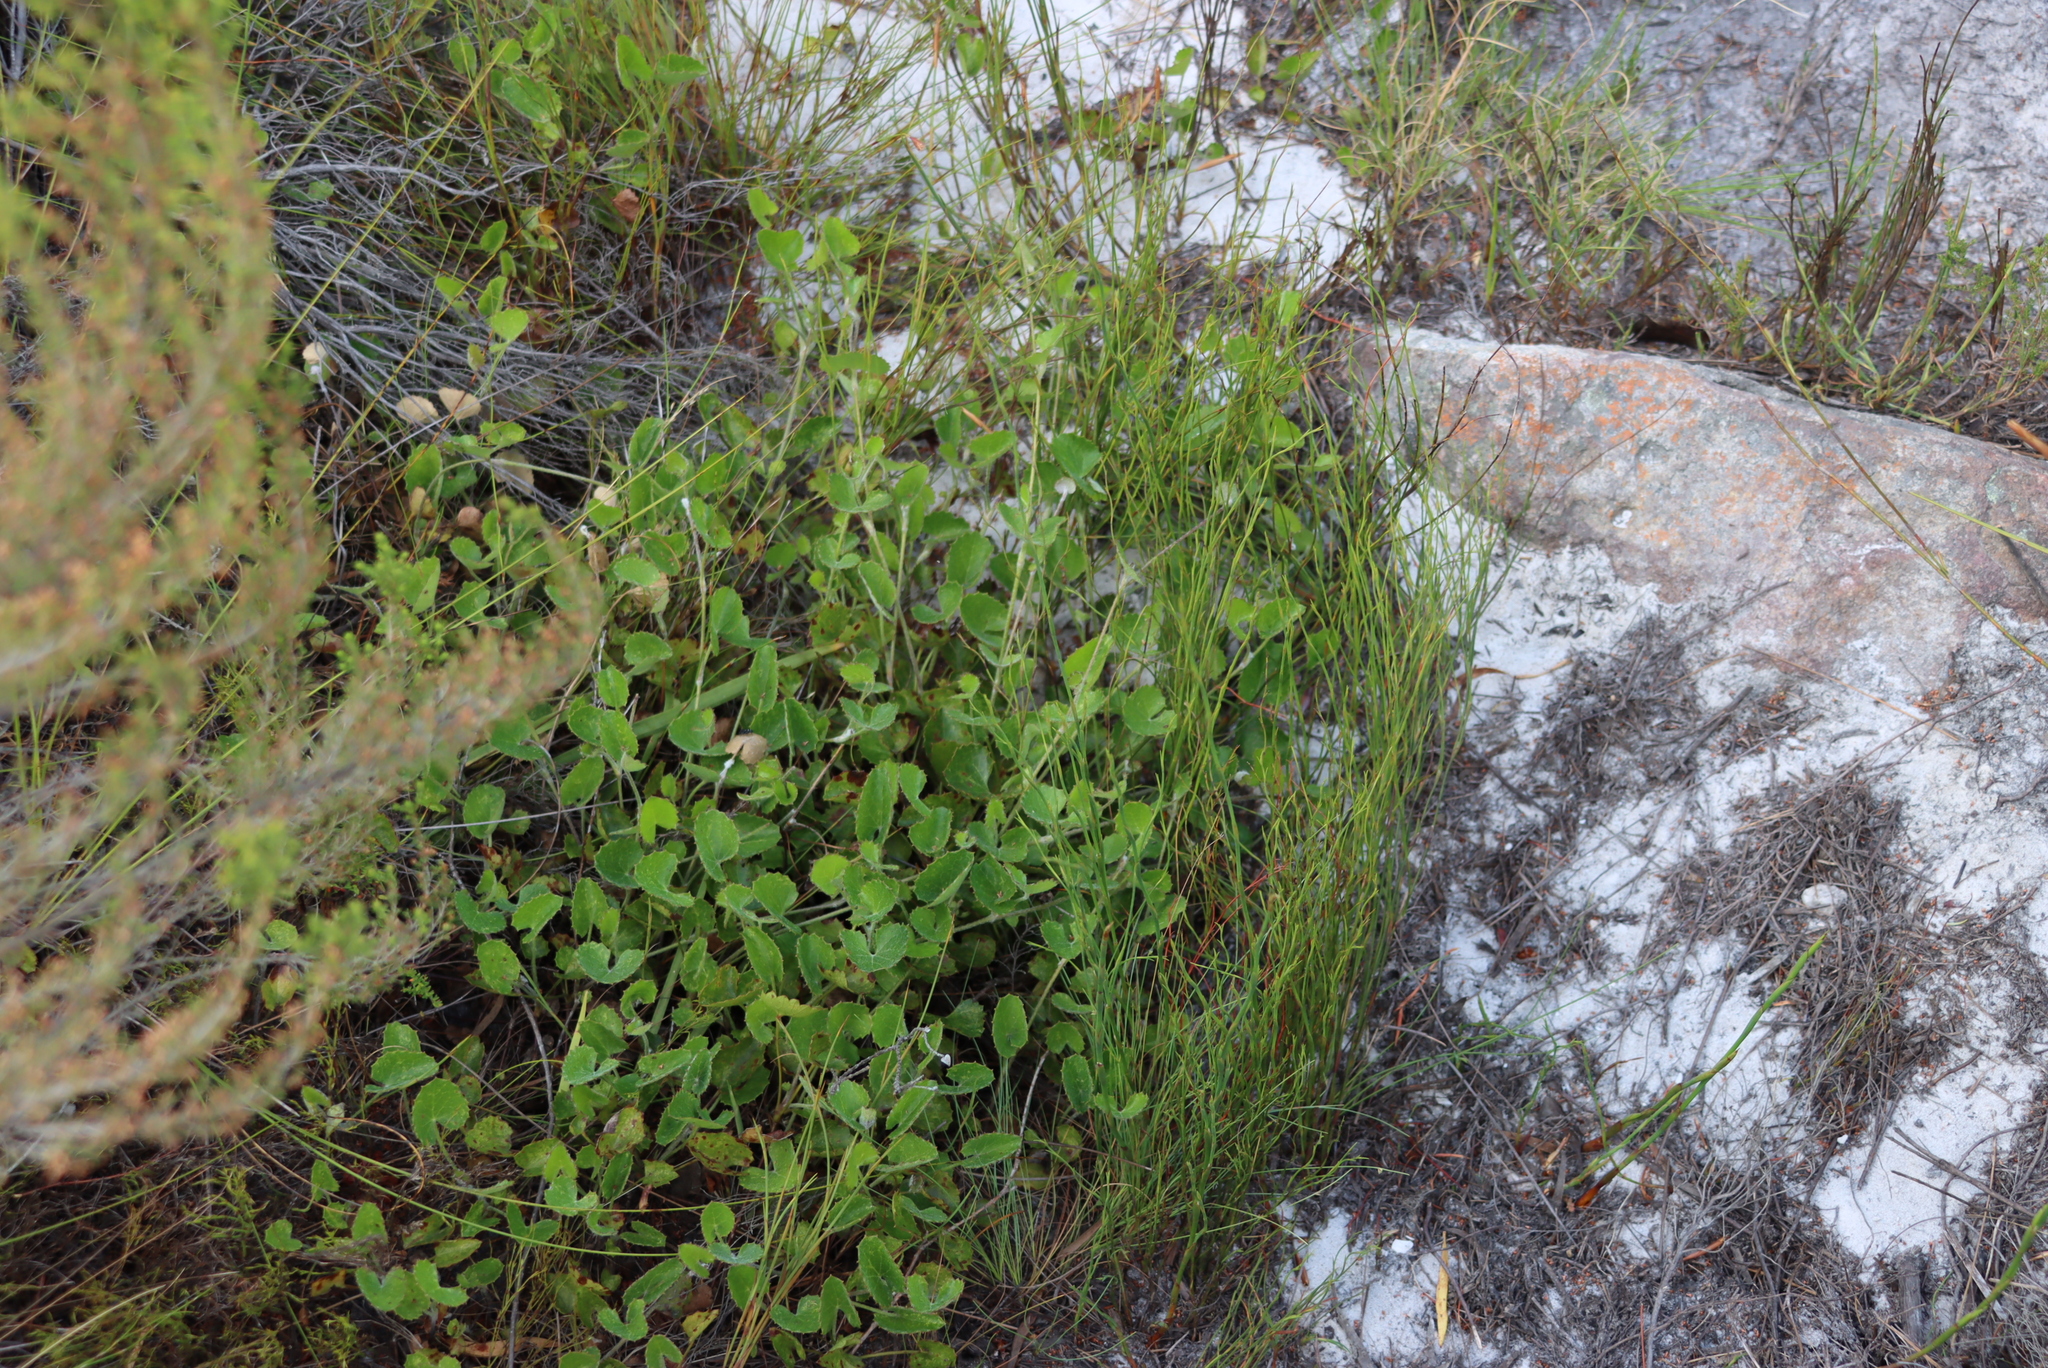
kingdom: Plantae
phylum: Tracheophyta
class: Magnoliopsida
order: Apiales
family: Apiaceae
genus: Centella
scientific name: Centella eriantha
